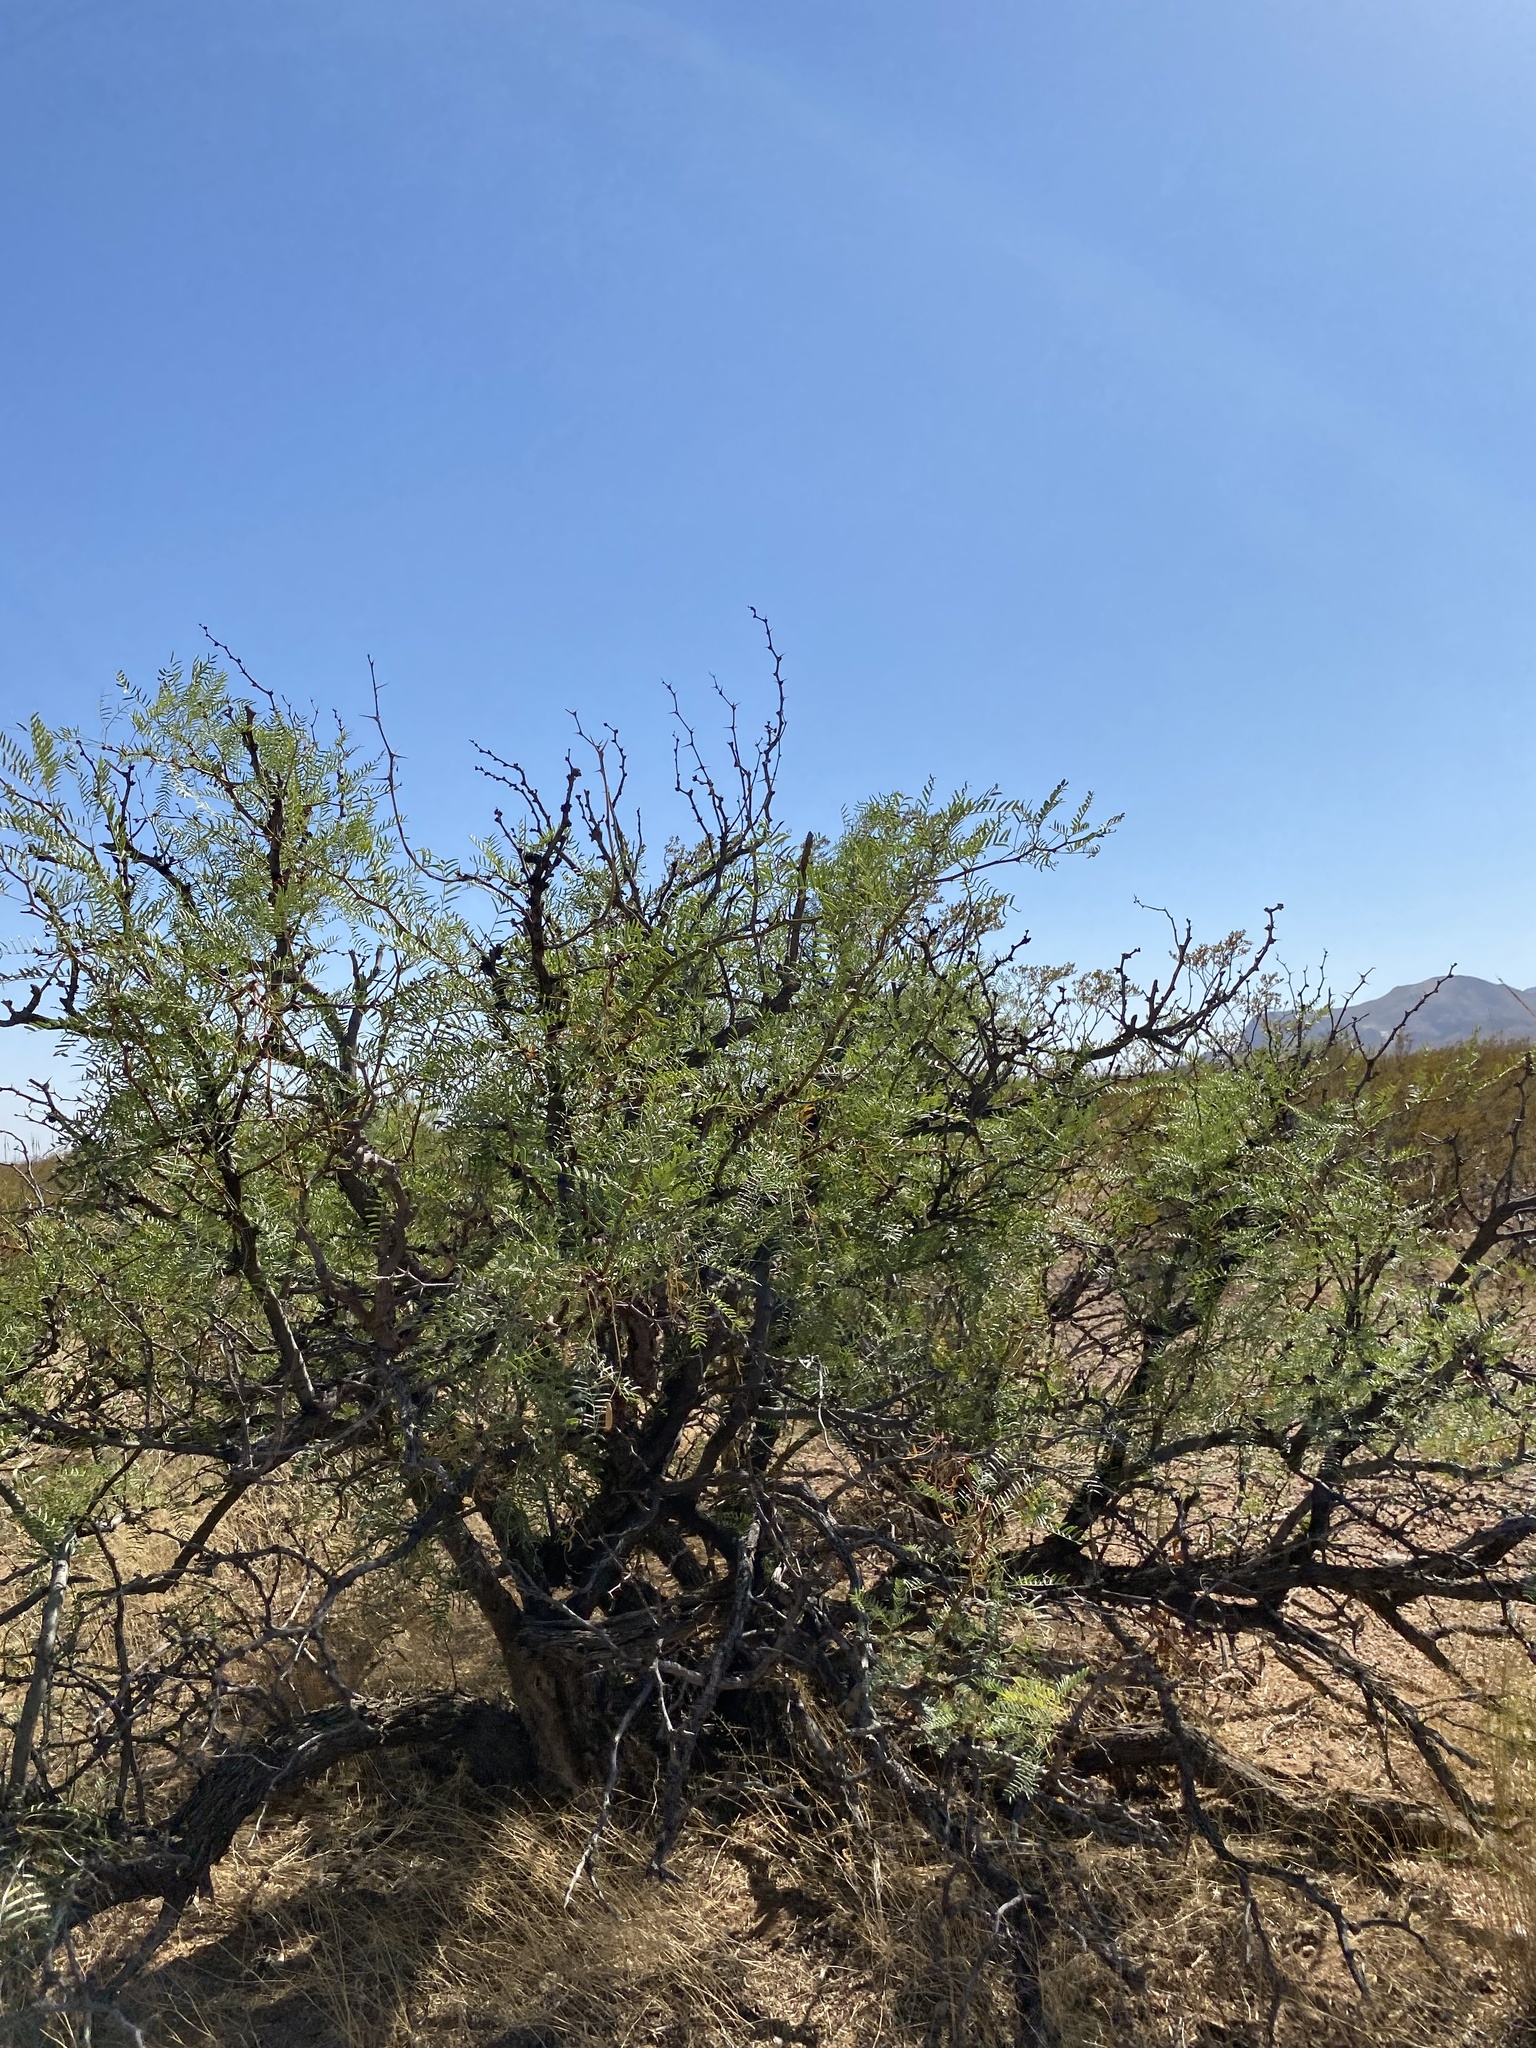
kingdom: Plantae
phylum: Tracheophyta
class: Magnoliopsida
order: Fabales
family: Fabaceae
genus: Prosopis
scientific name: Prosopis glandulosa
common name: Honey mesquite
